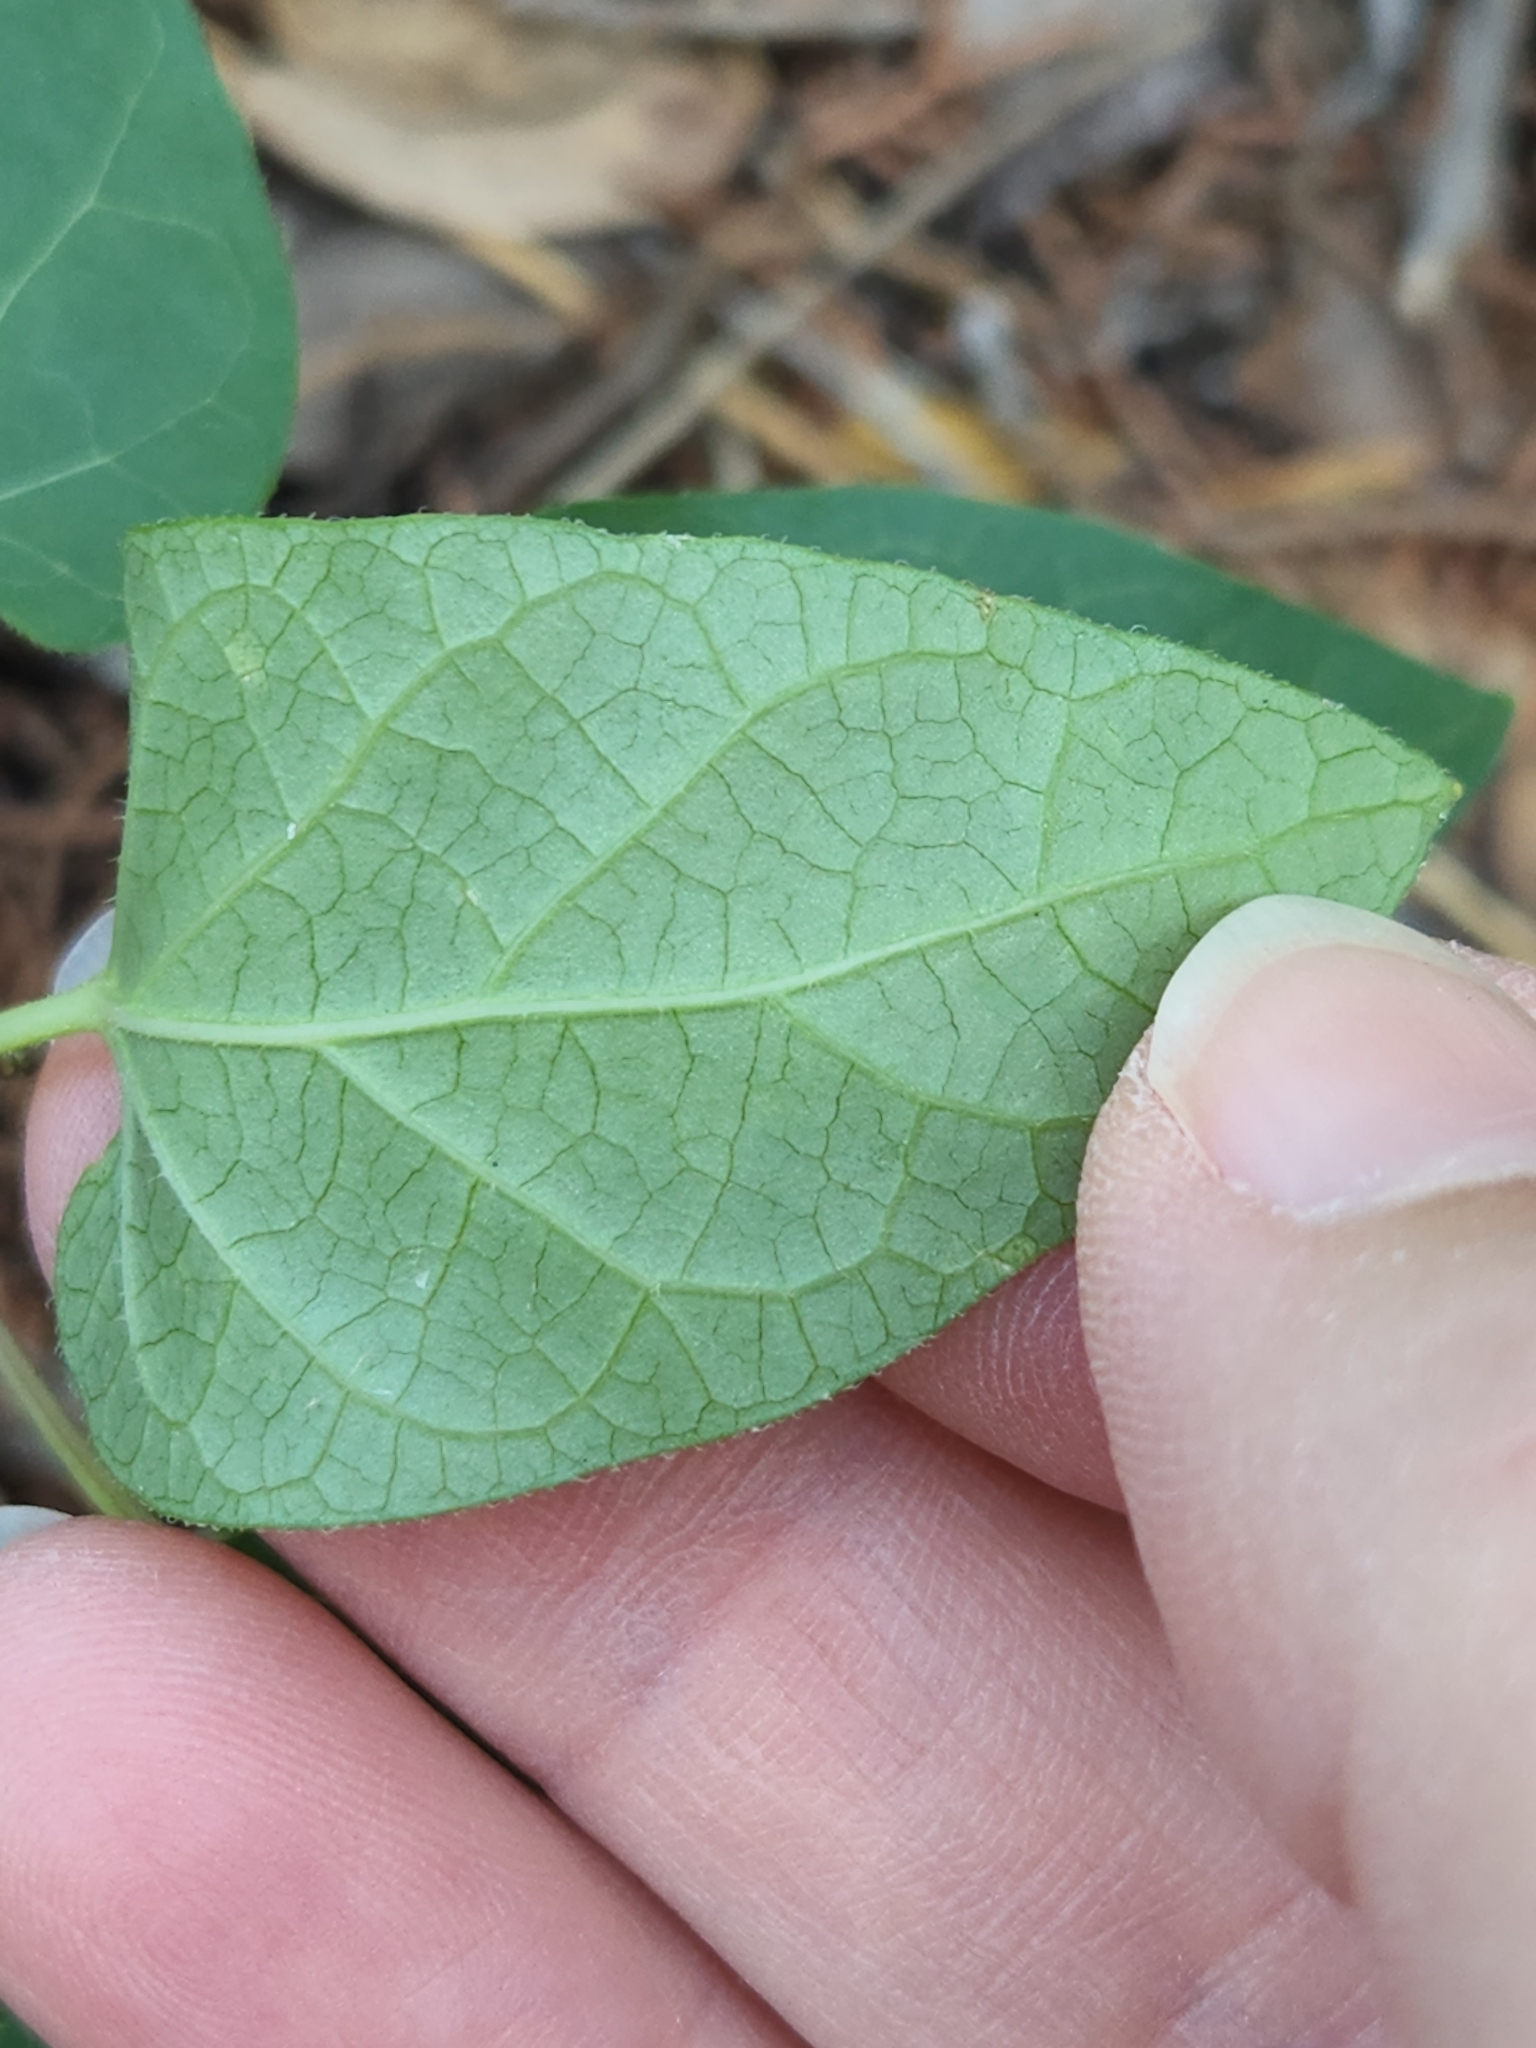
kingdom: Plantae
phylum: Tracheophyta
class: Magnoliopsida
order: Gentianales
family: Apocynaceae
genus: Matelea
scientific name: Matelea edwardsensis
